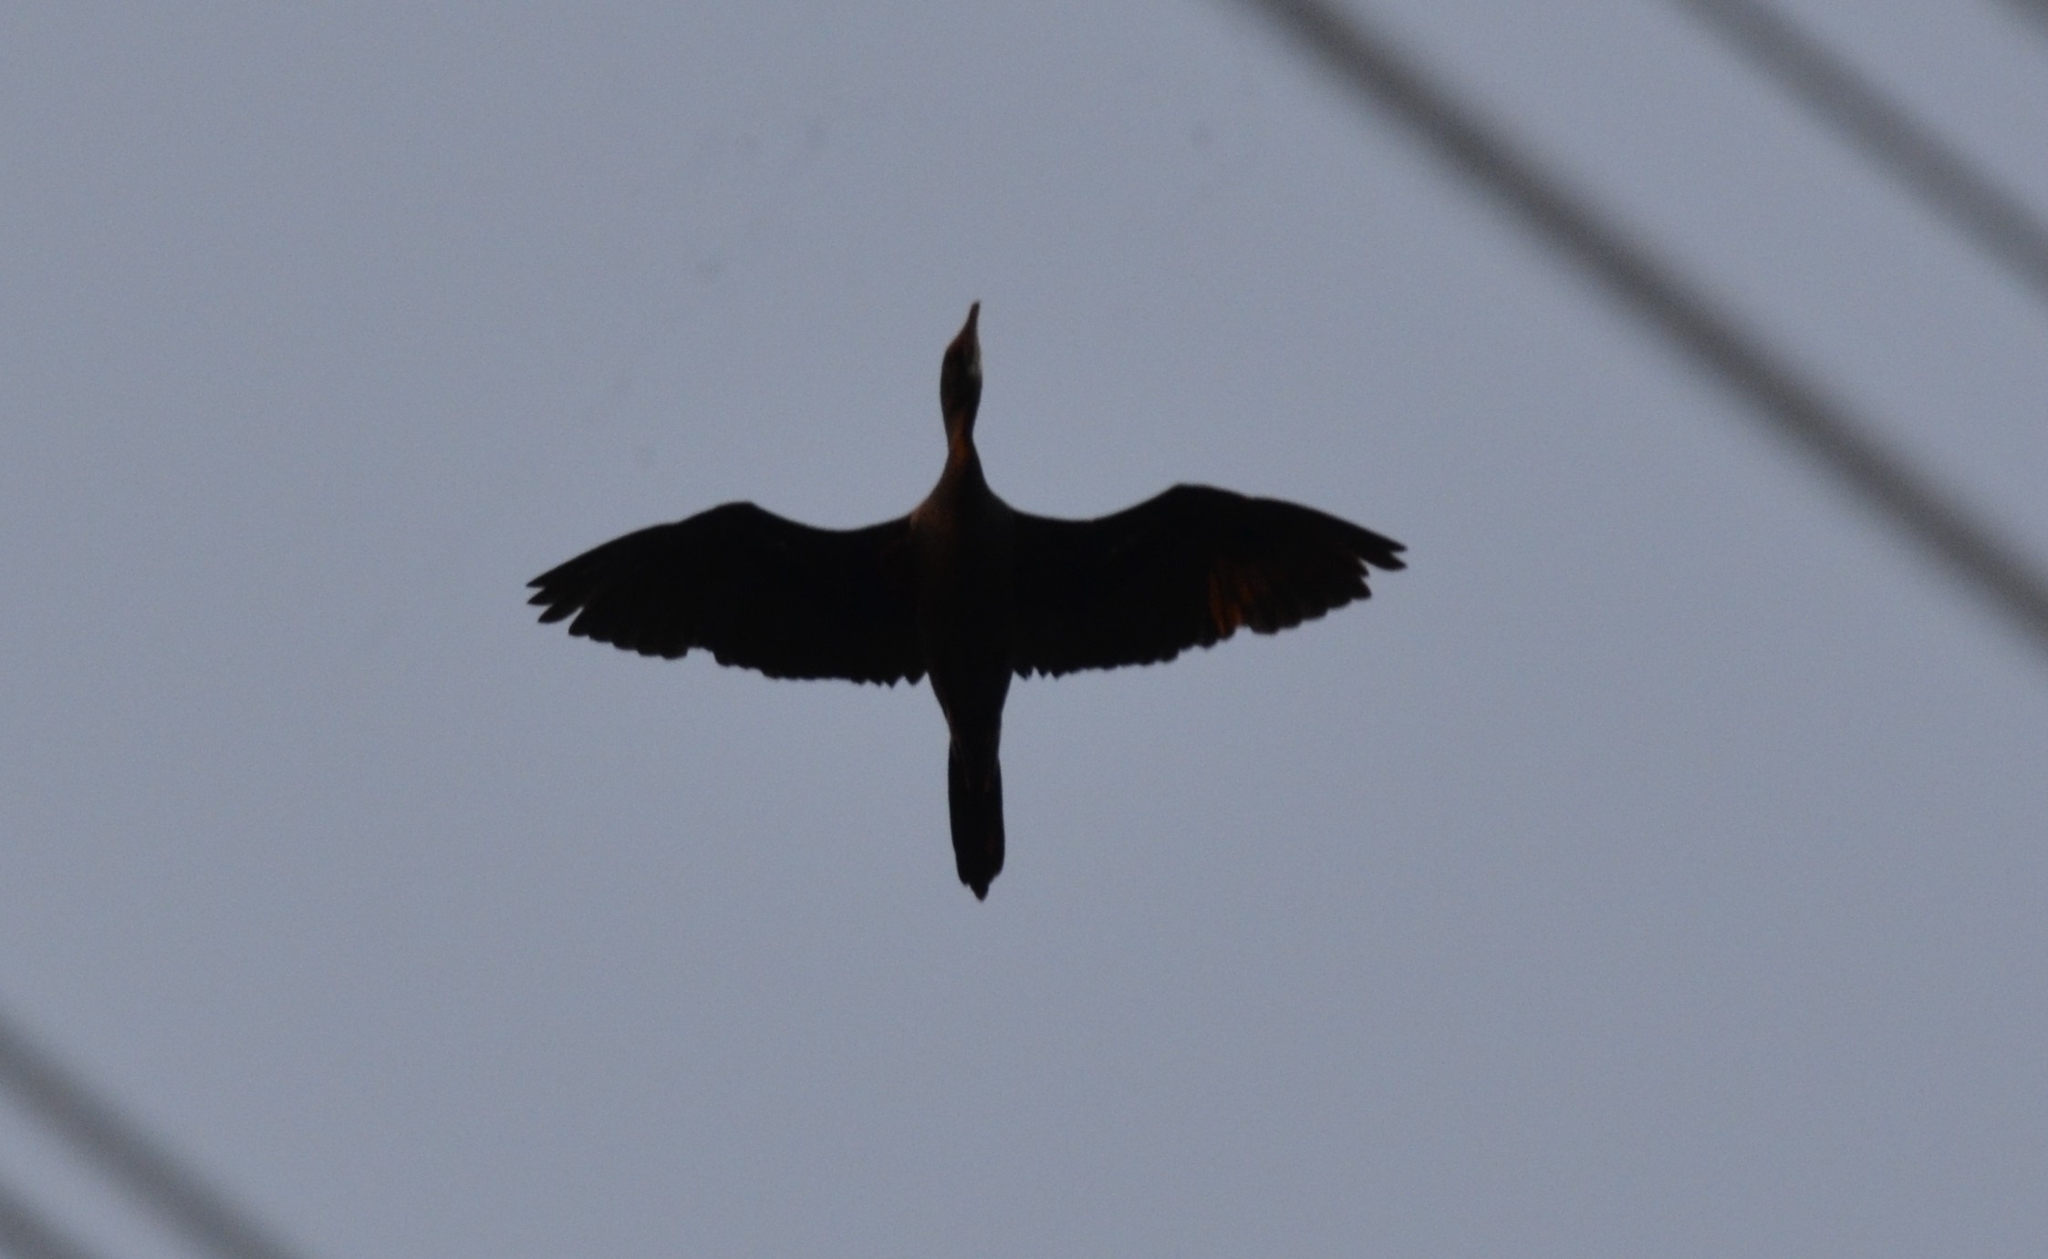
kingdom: Animalia
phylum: Chordata
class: Aves
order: Suliformes
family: Phalacrocoracidae
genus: Microcarbo
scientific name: Microcarbo niger
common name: Little cormorant
